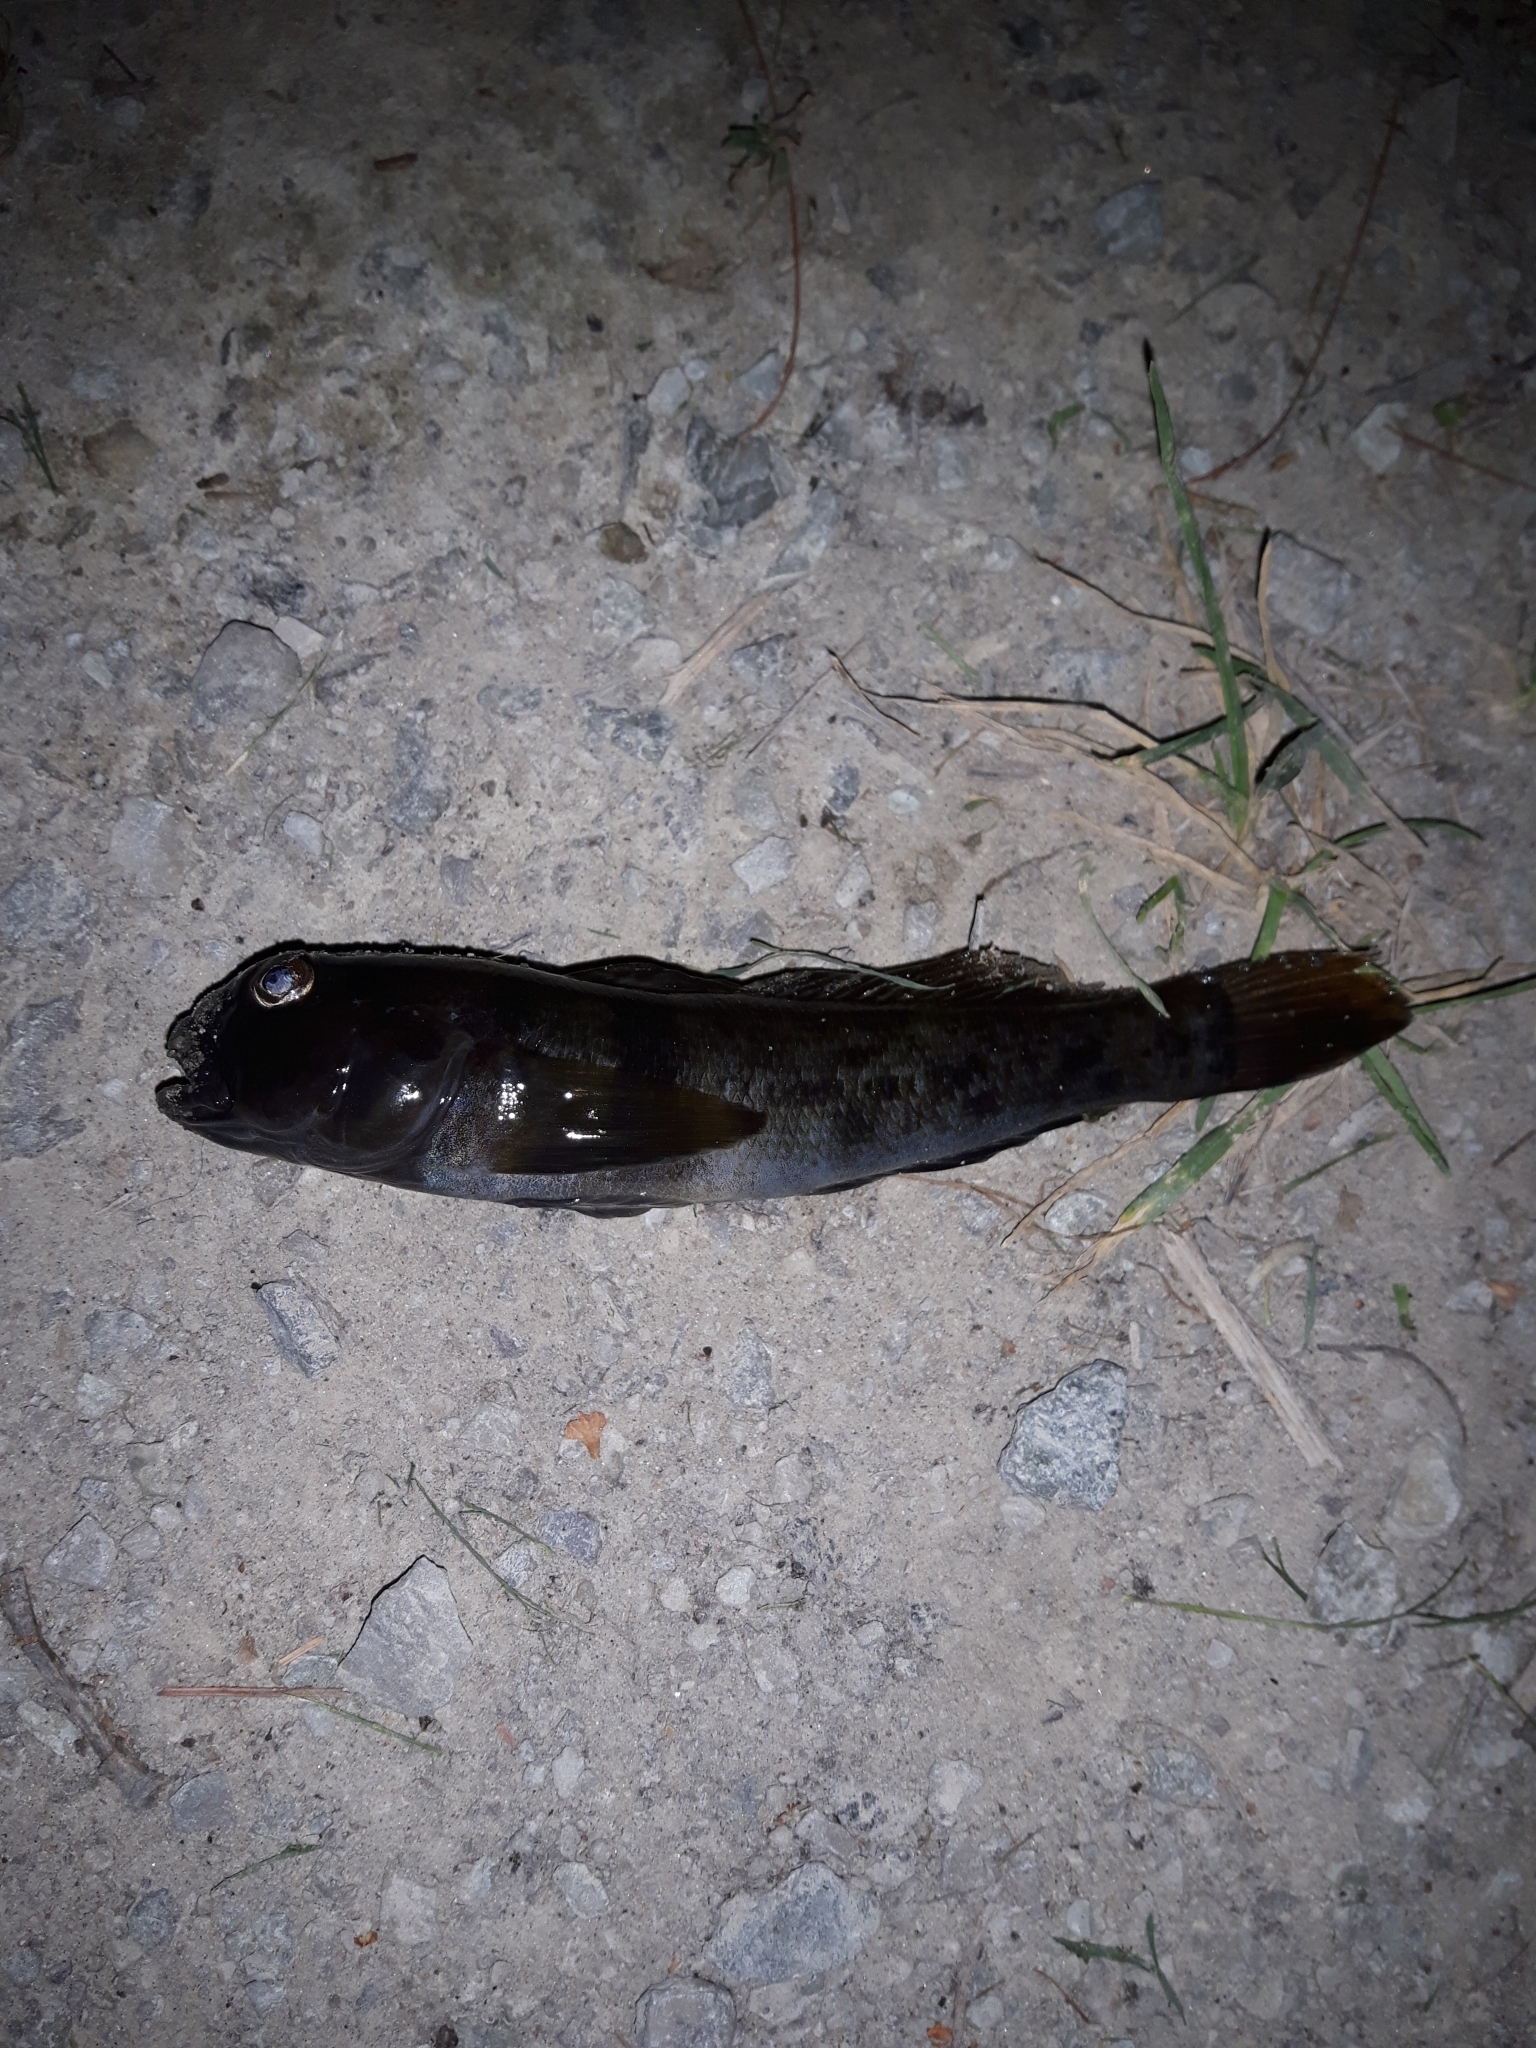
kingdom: Animalia
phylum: Chordata
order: Perciformes
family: Gobiidae
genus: Neogobius
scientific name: Neogobius melanostomus
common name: Round goby
